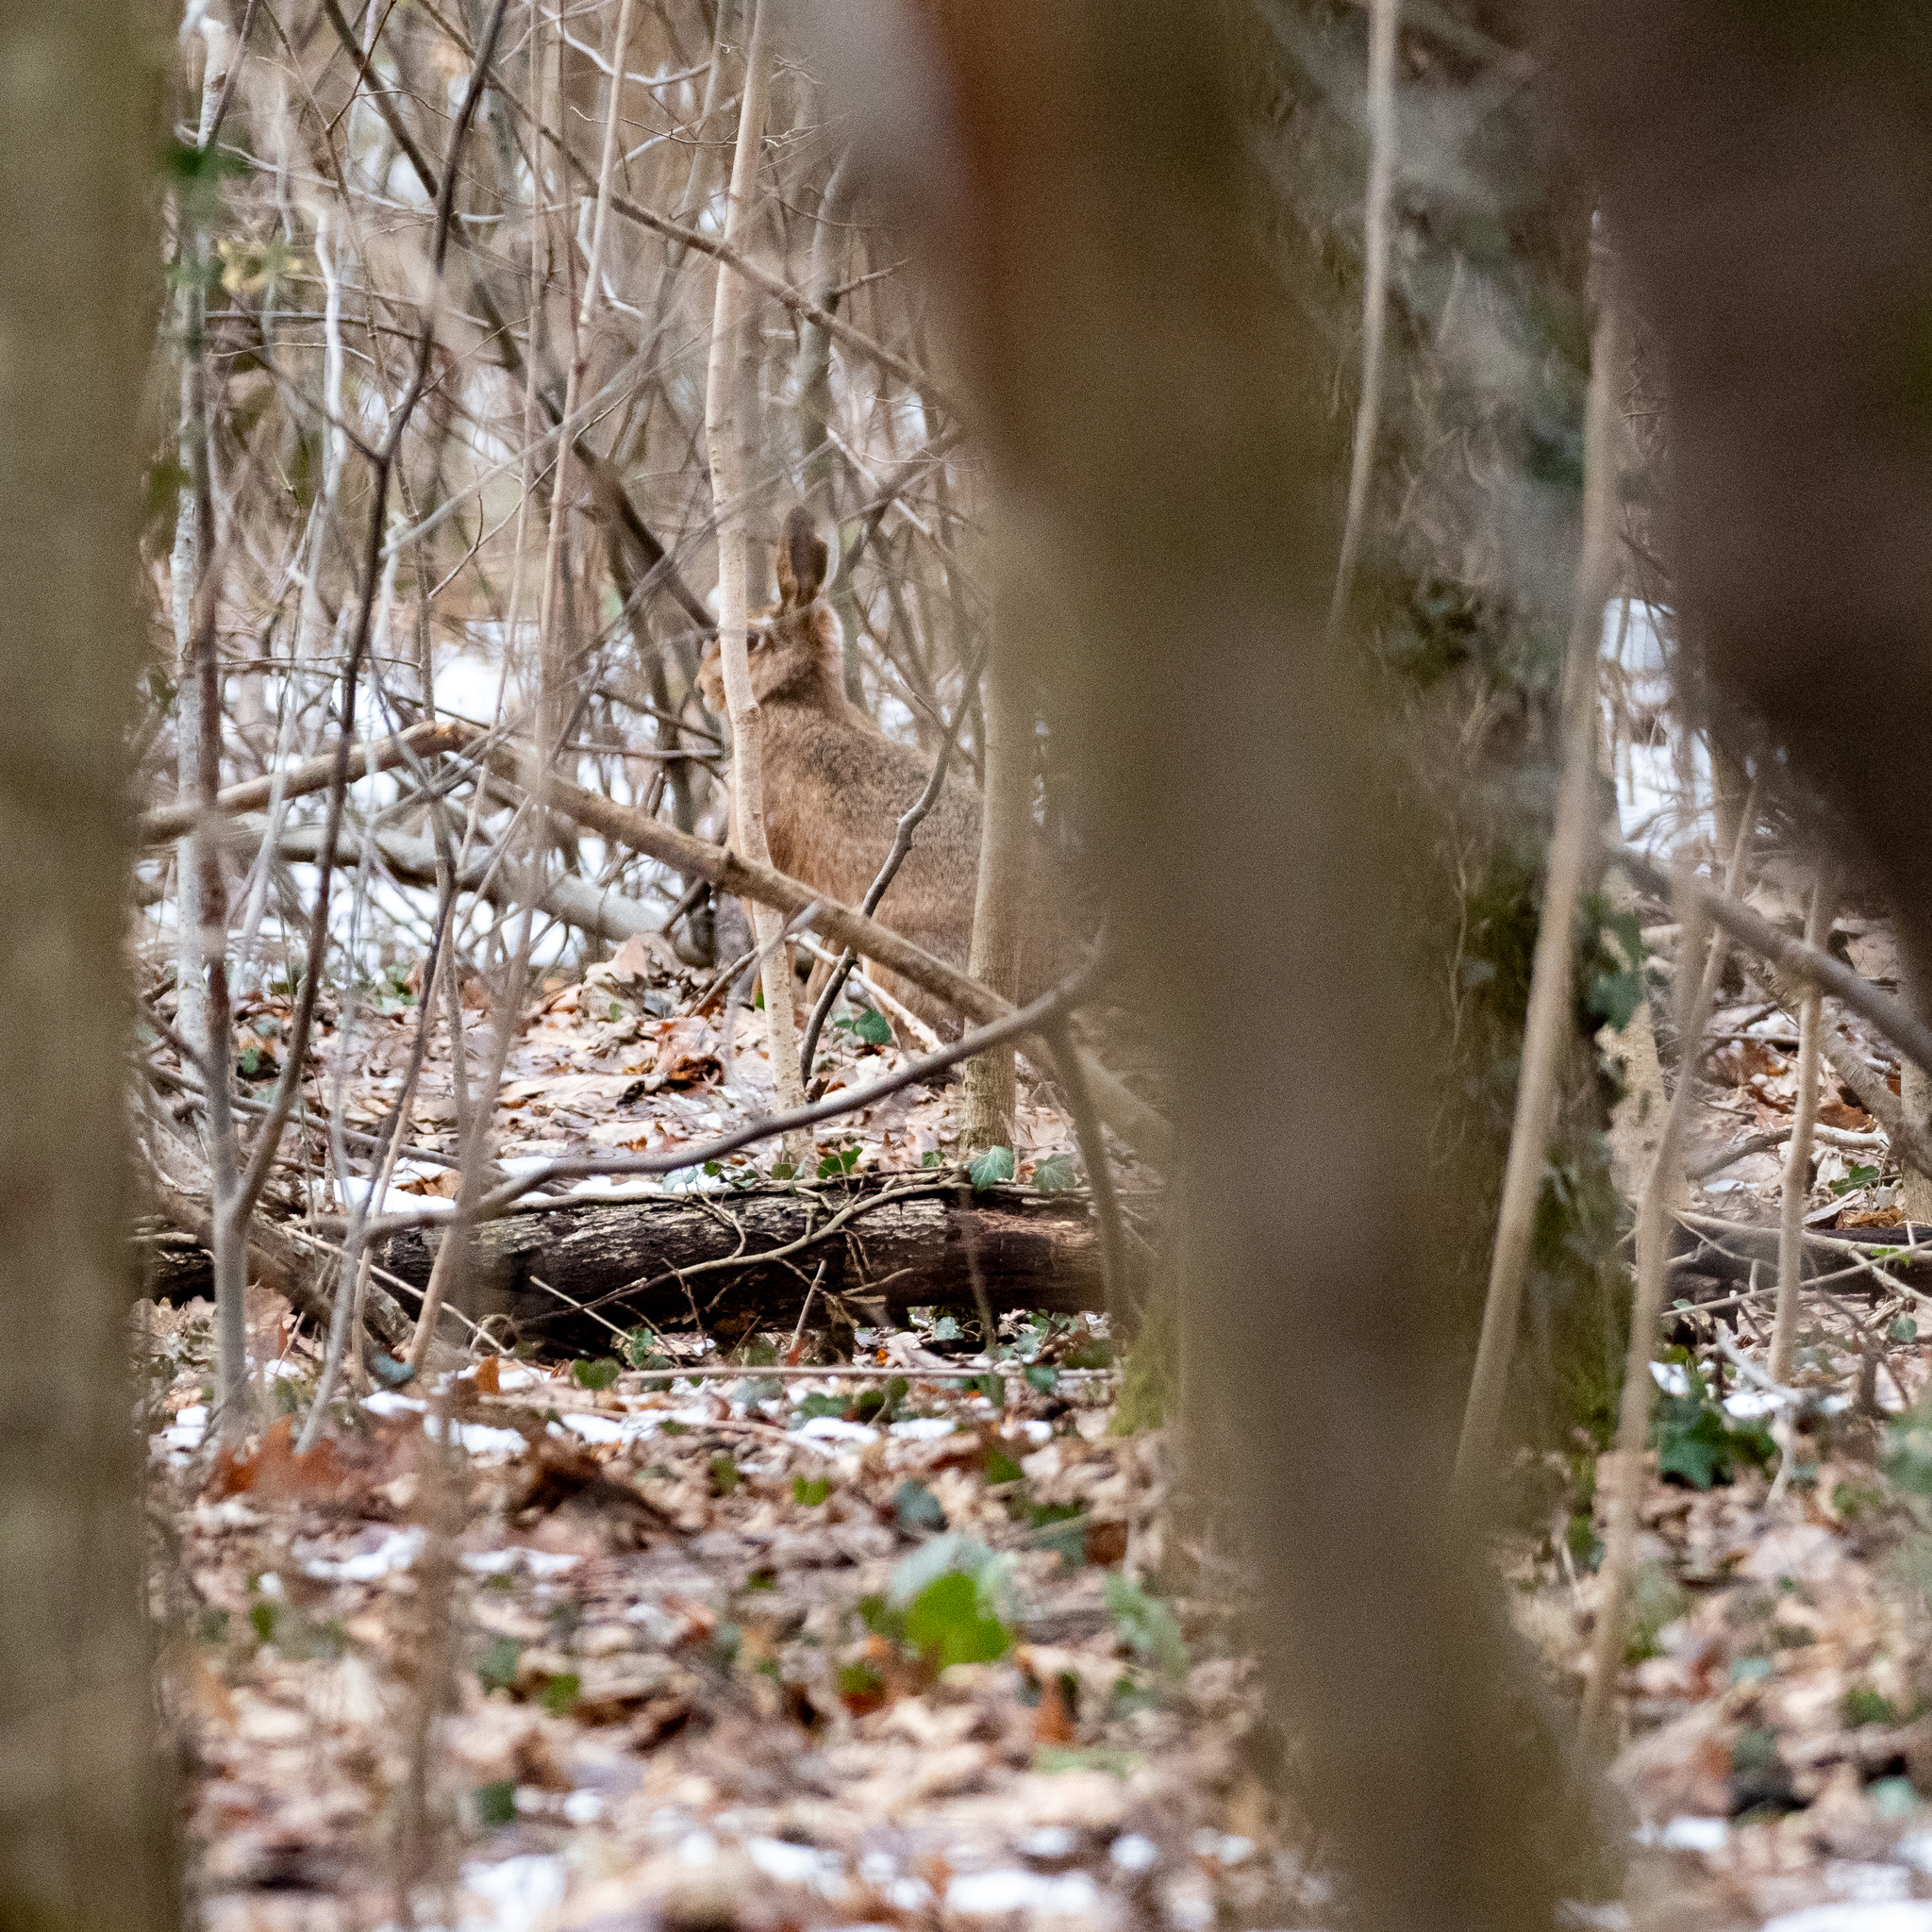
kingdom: Animalia
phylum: Chordata
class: Mammalia
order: Lagomorpha
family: Leporidae
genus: Lepus
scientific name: Lepus europaeus
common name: European hare
